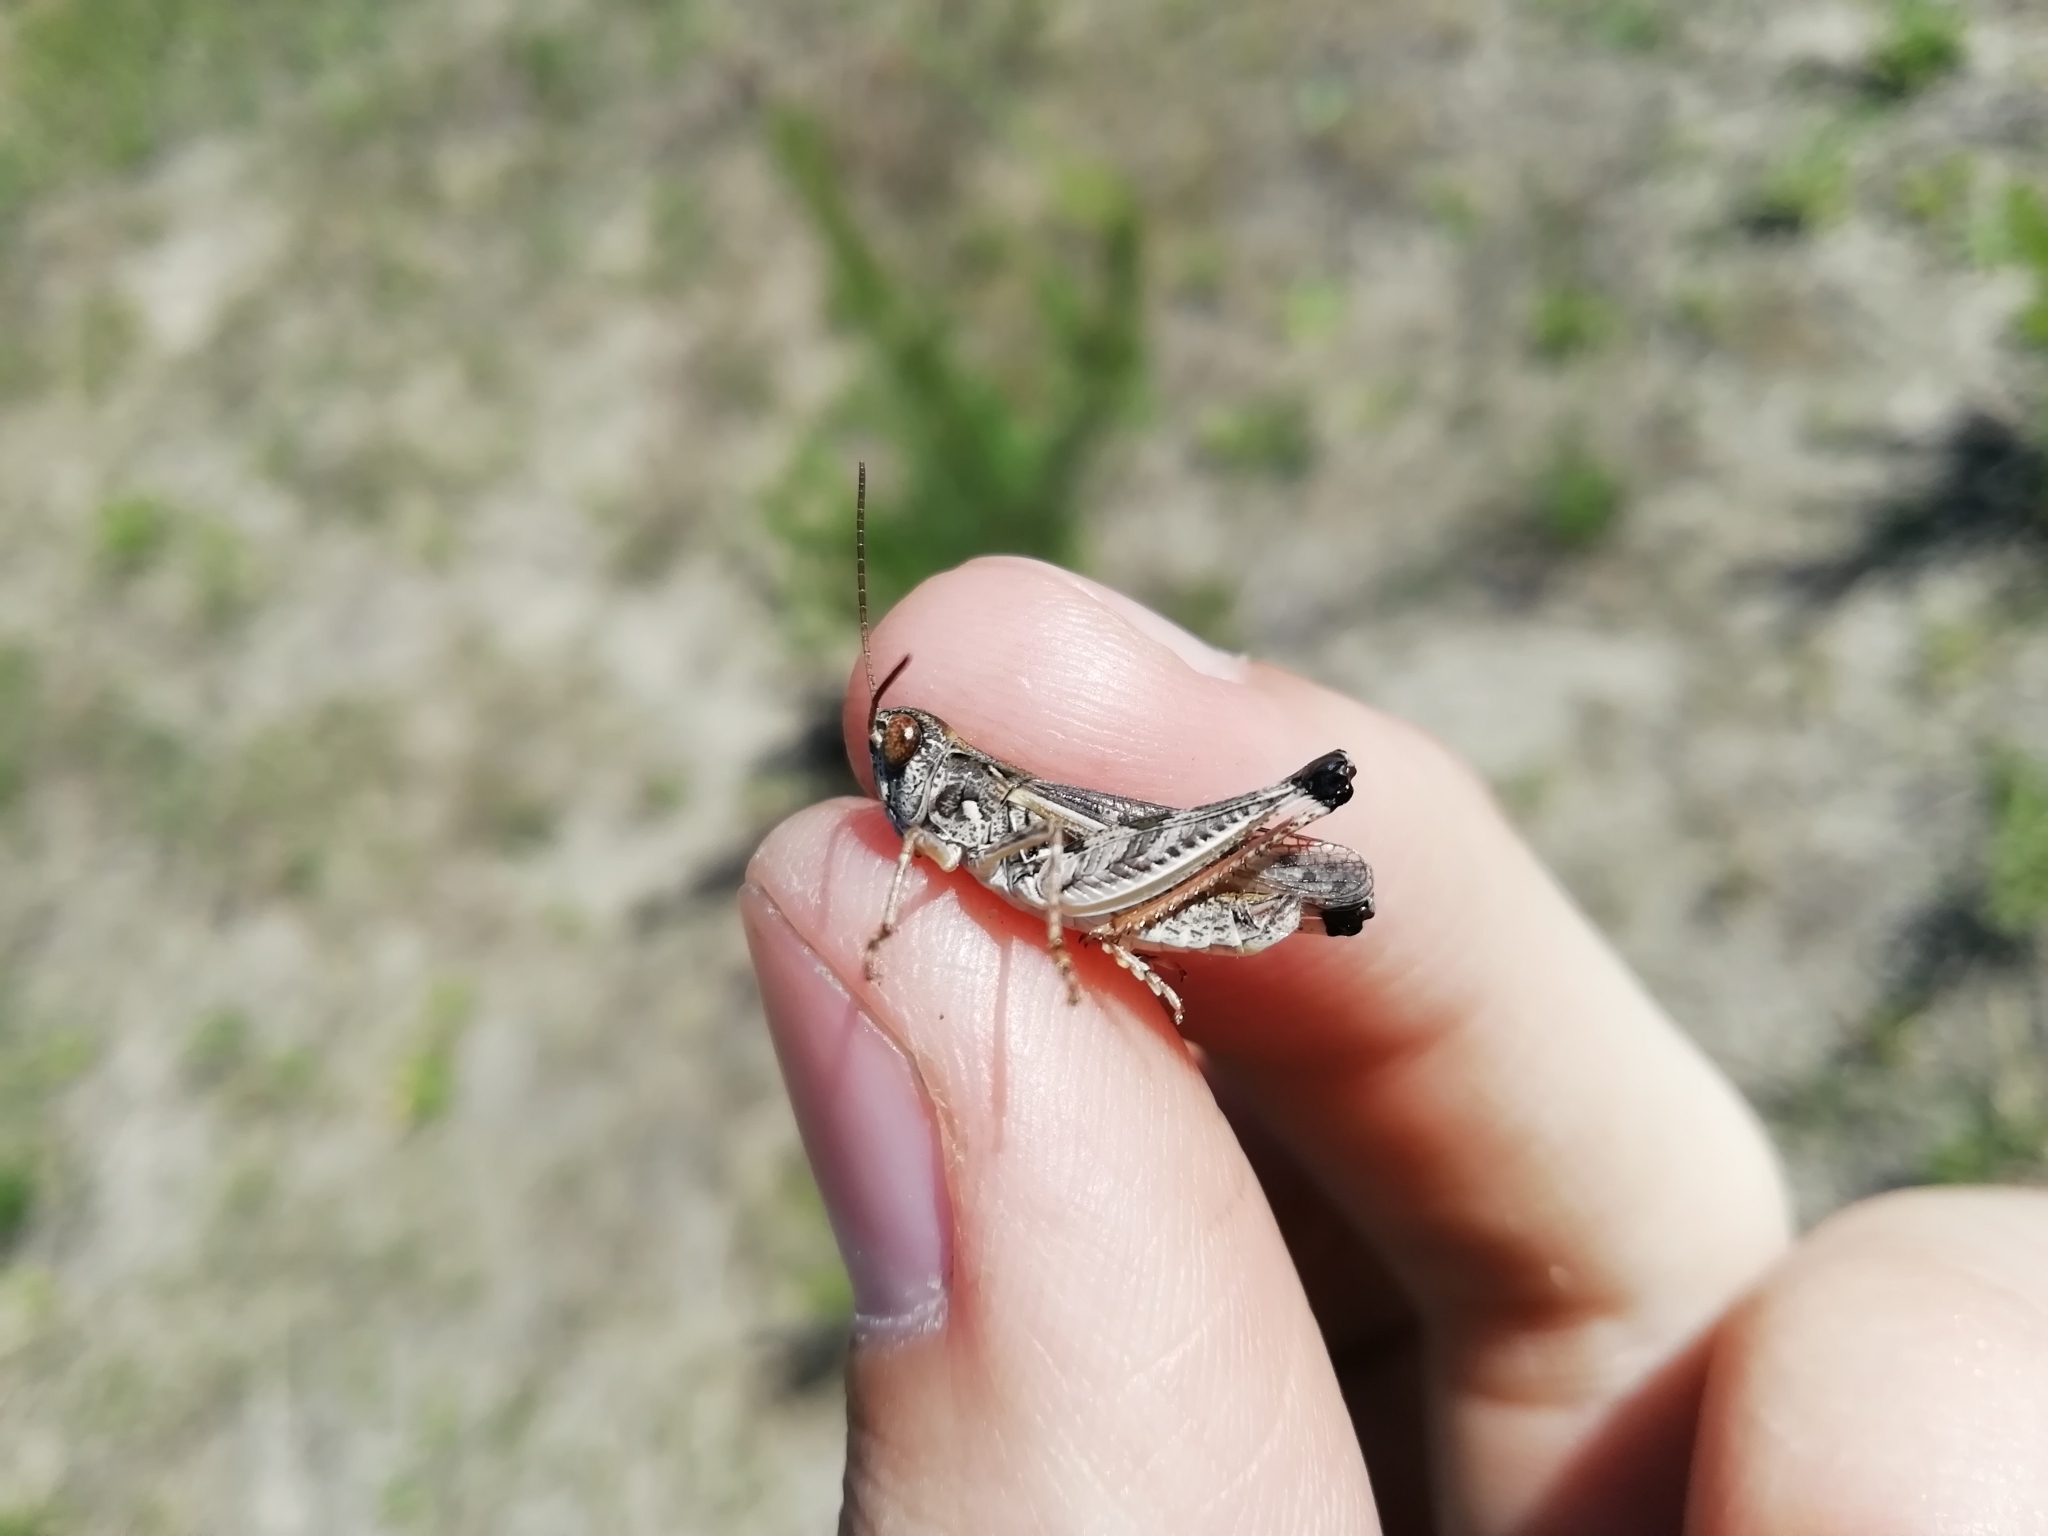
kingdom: Animalia
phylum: Arthropoda
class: Insecta
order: Orthoptera
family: Acrididae
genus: Dociostaurus
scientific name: Dociostaurus brevicollis
